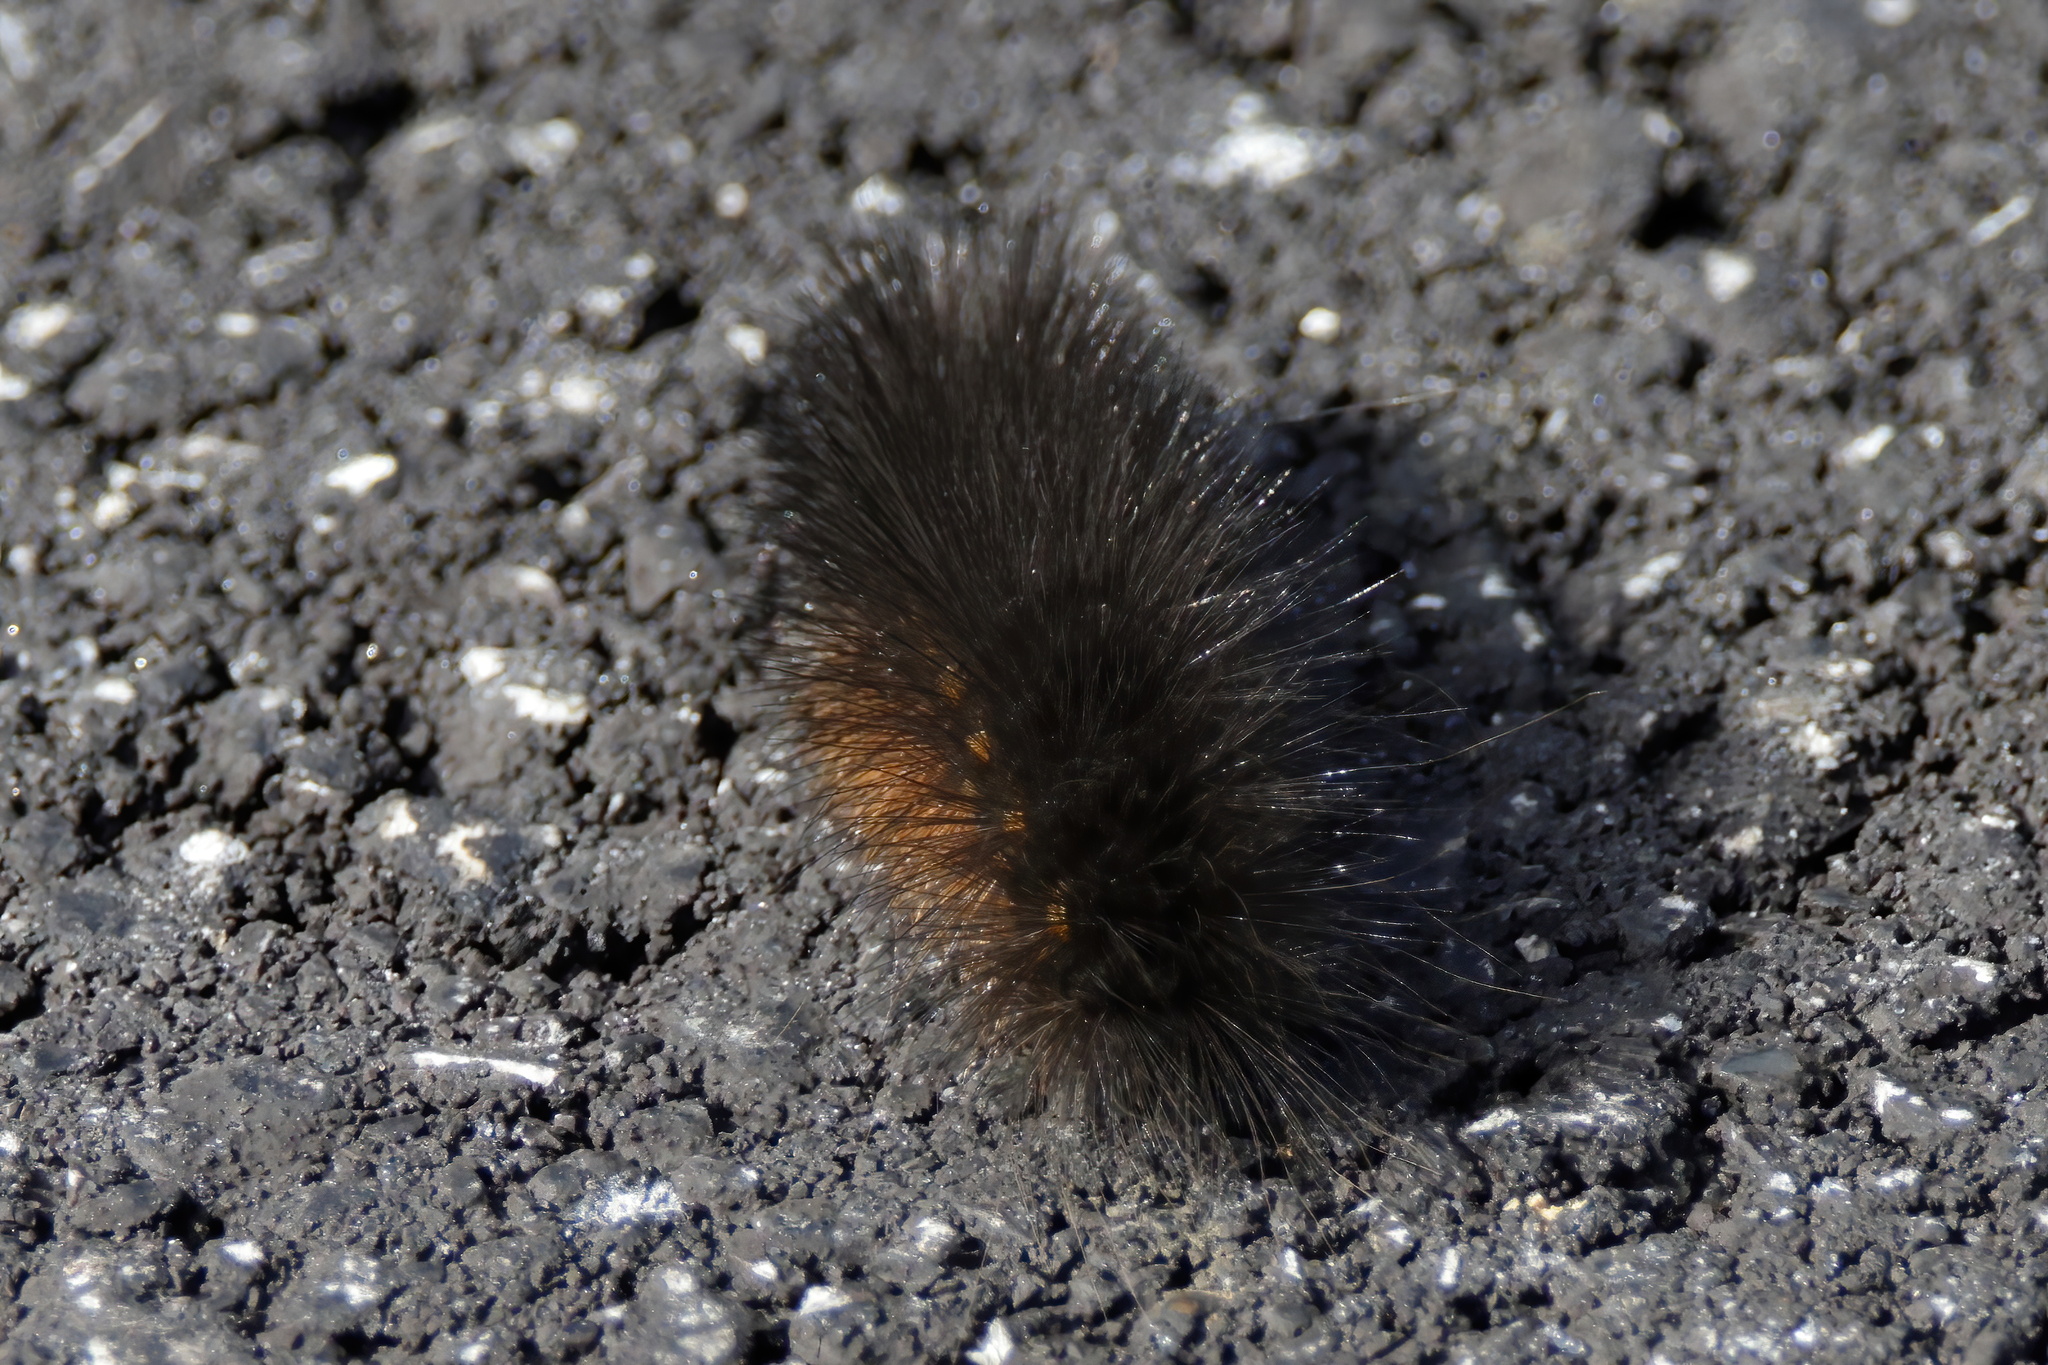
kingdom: Animalia
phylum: Arthropoda
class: Insecta
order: Lepidoptera
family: Erebidae
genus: Estigmene
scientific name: Estigmene acrea
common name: Salt marsh moth
